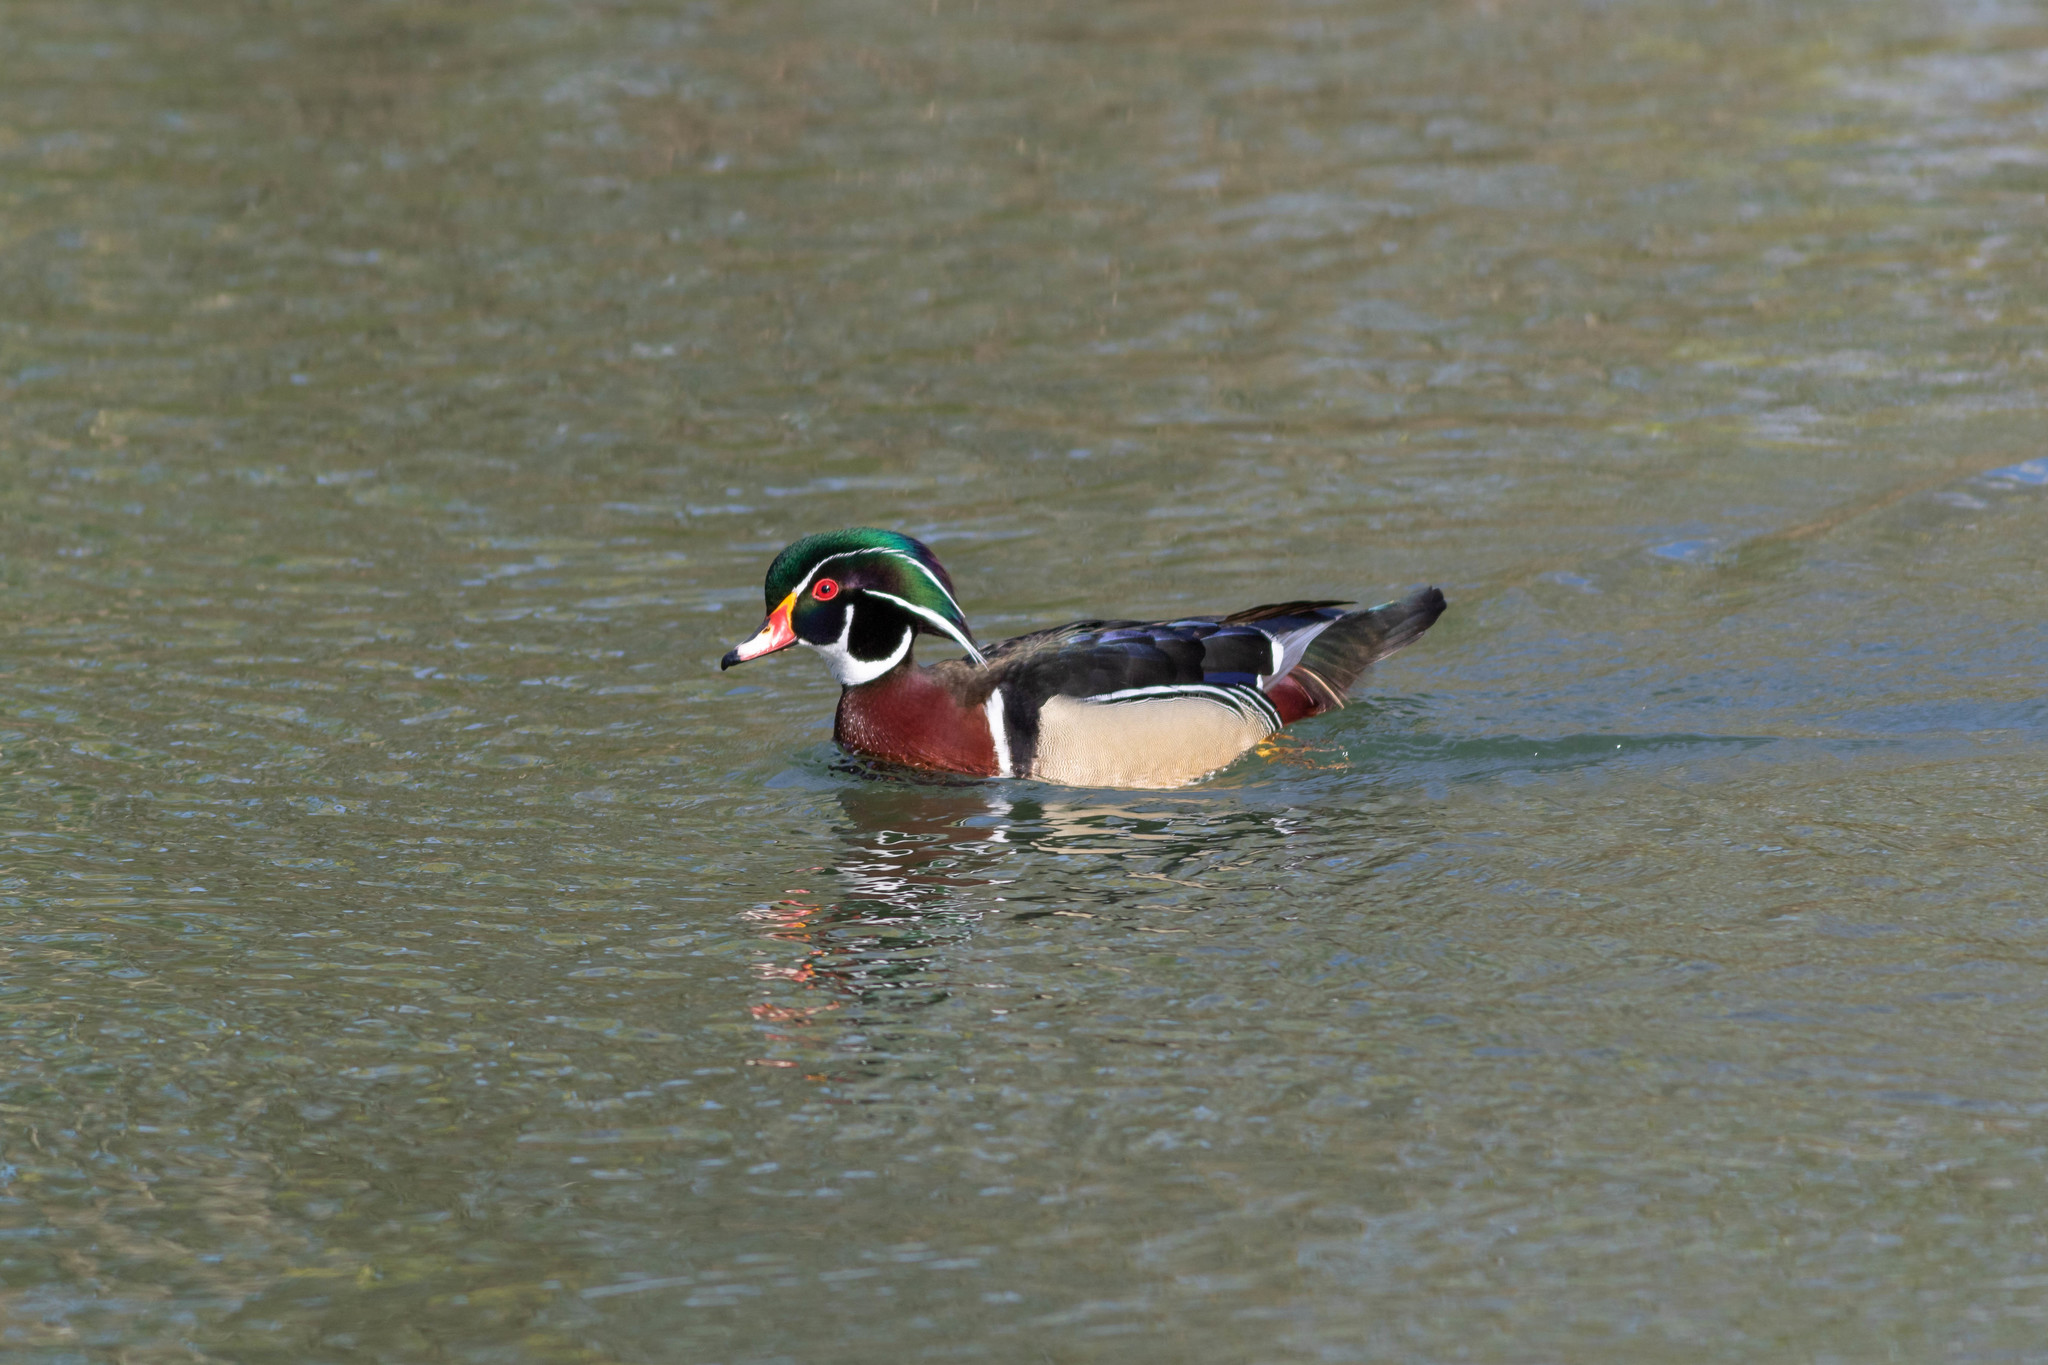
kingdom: Animalia
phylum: Chordata
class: Aves
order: Anseriformes
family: Anatidae
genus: Anas
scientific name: Anas platyrhynchos
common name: Mallard
